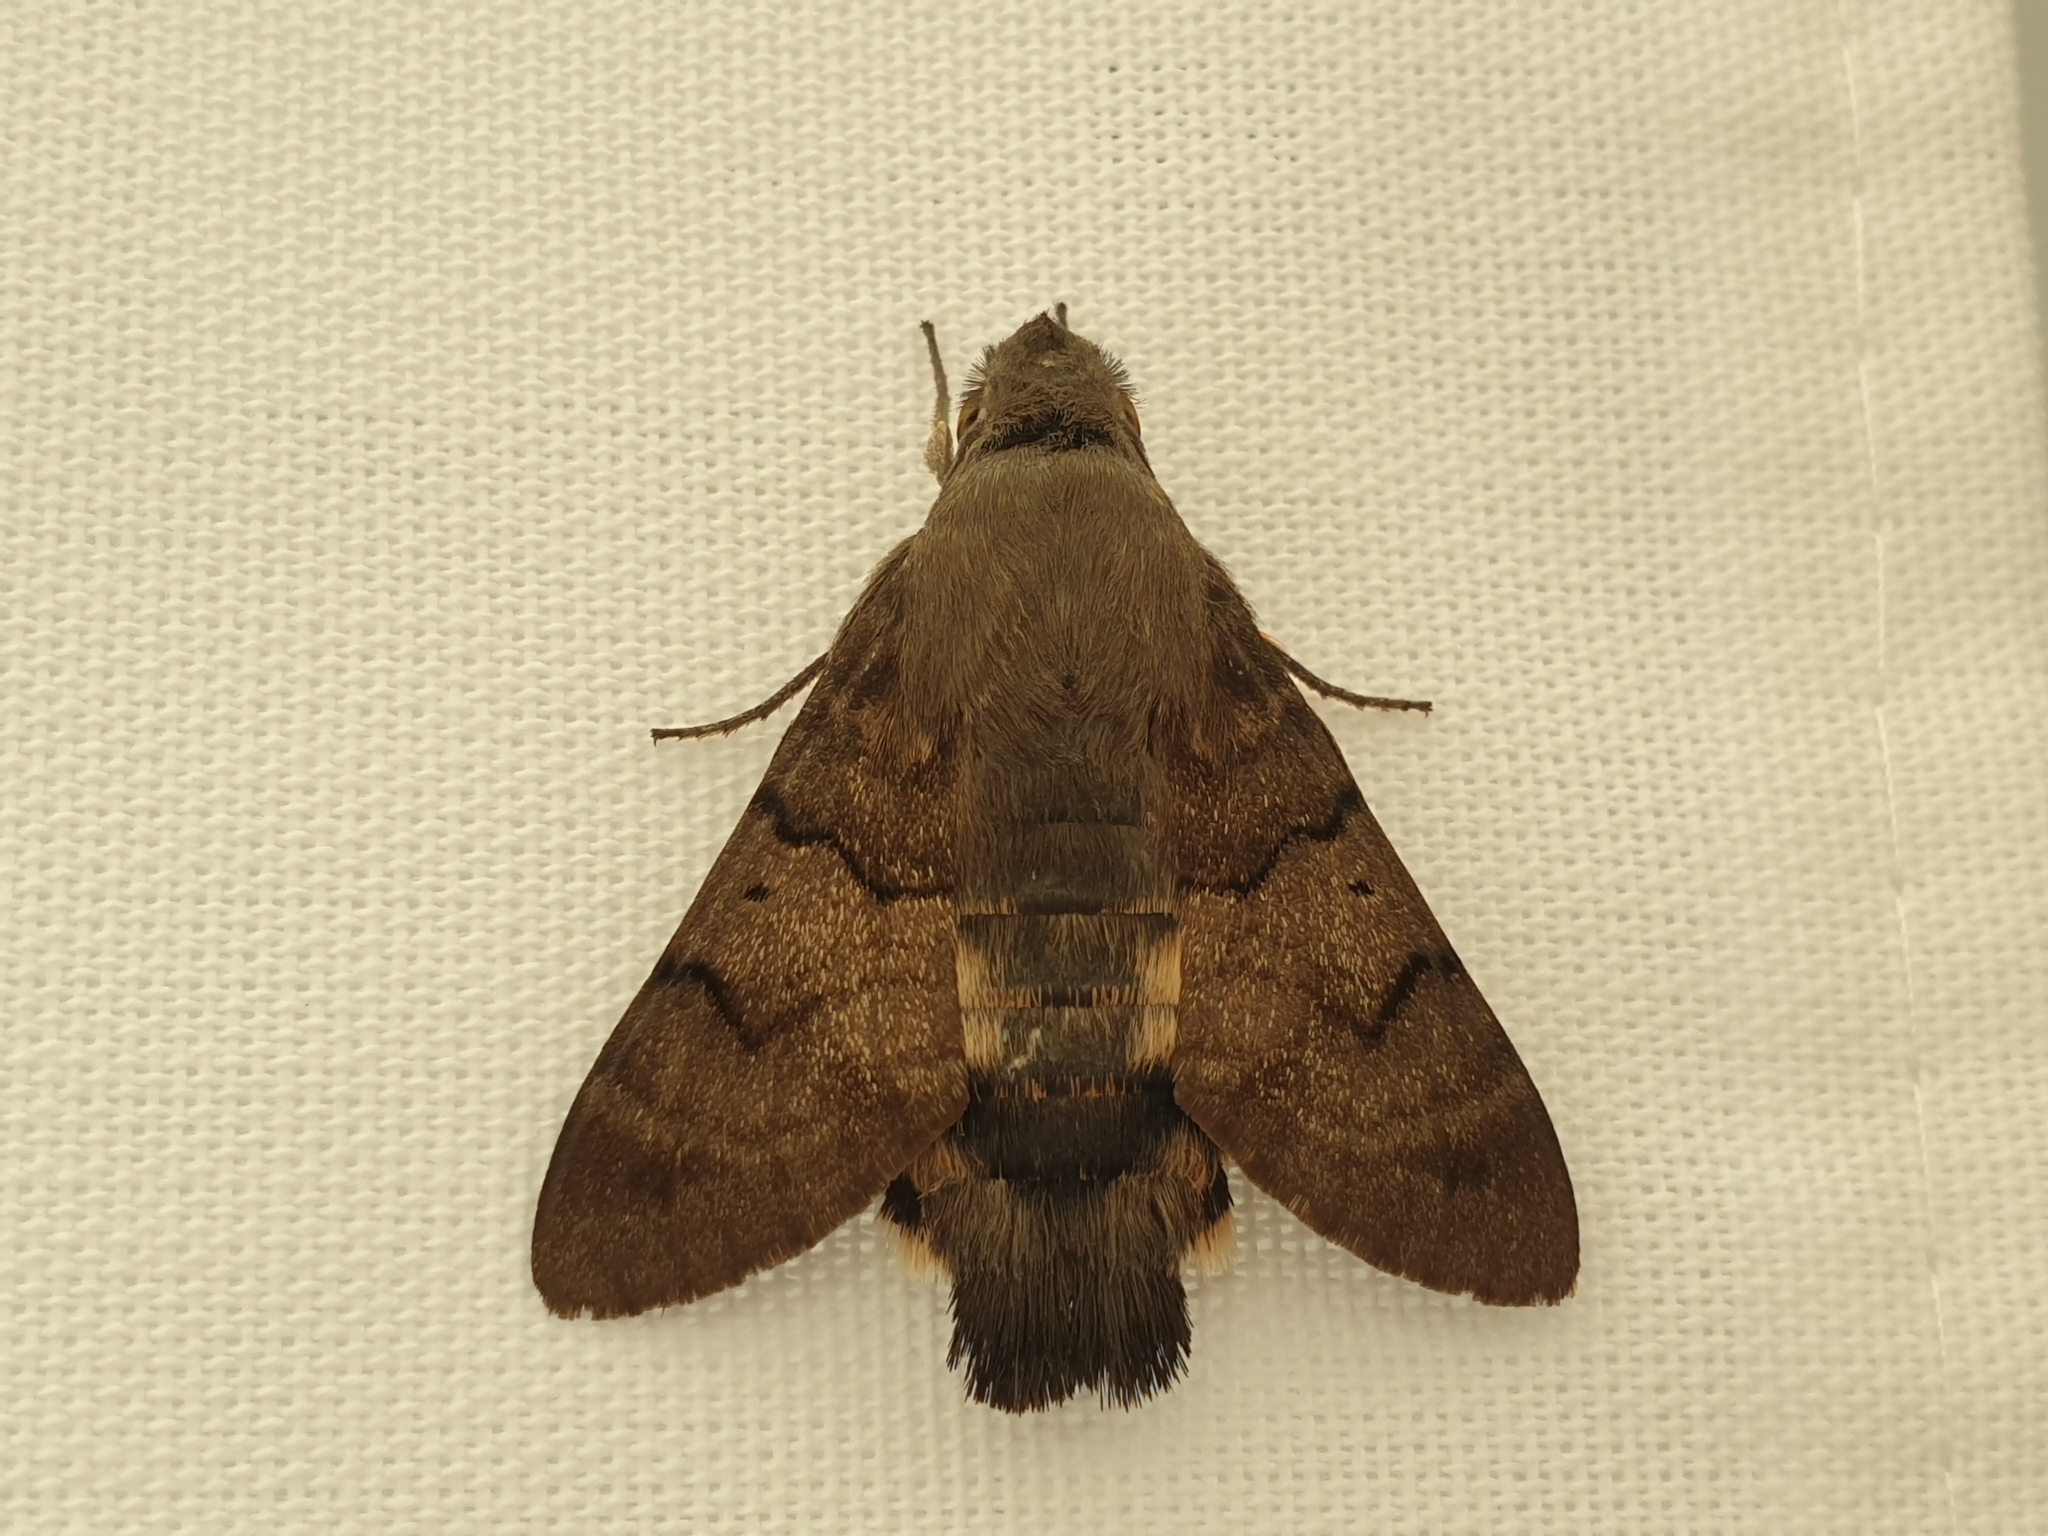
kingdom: Animalia
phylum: Arthropoda
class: Insecta
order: Lepidoptera
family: Sphingidae
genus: Macroglossum
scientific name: Macroglossum stellatarum
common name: Humming-bird hawk-moth
